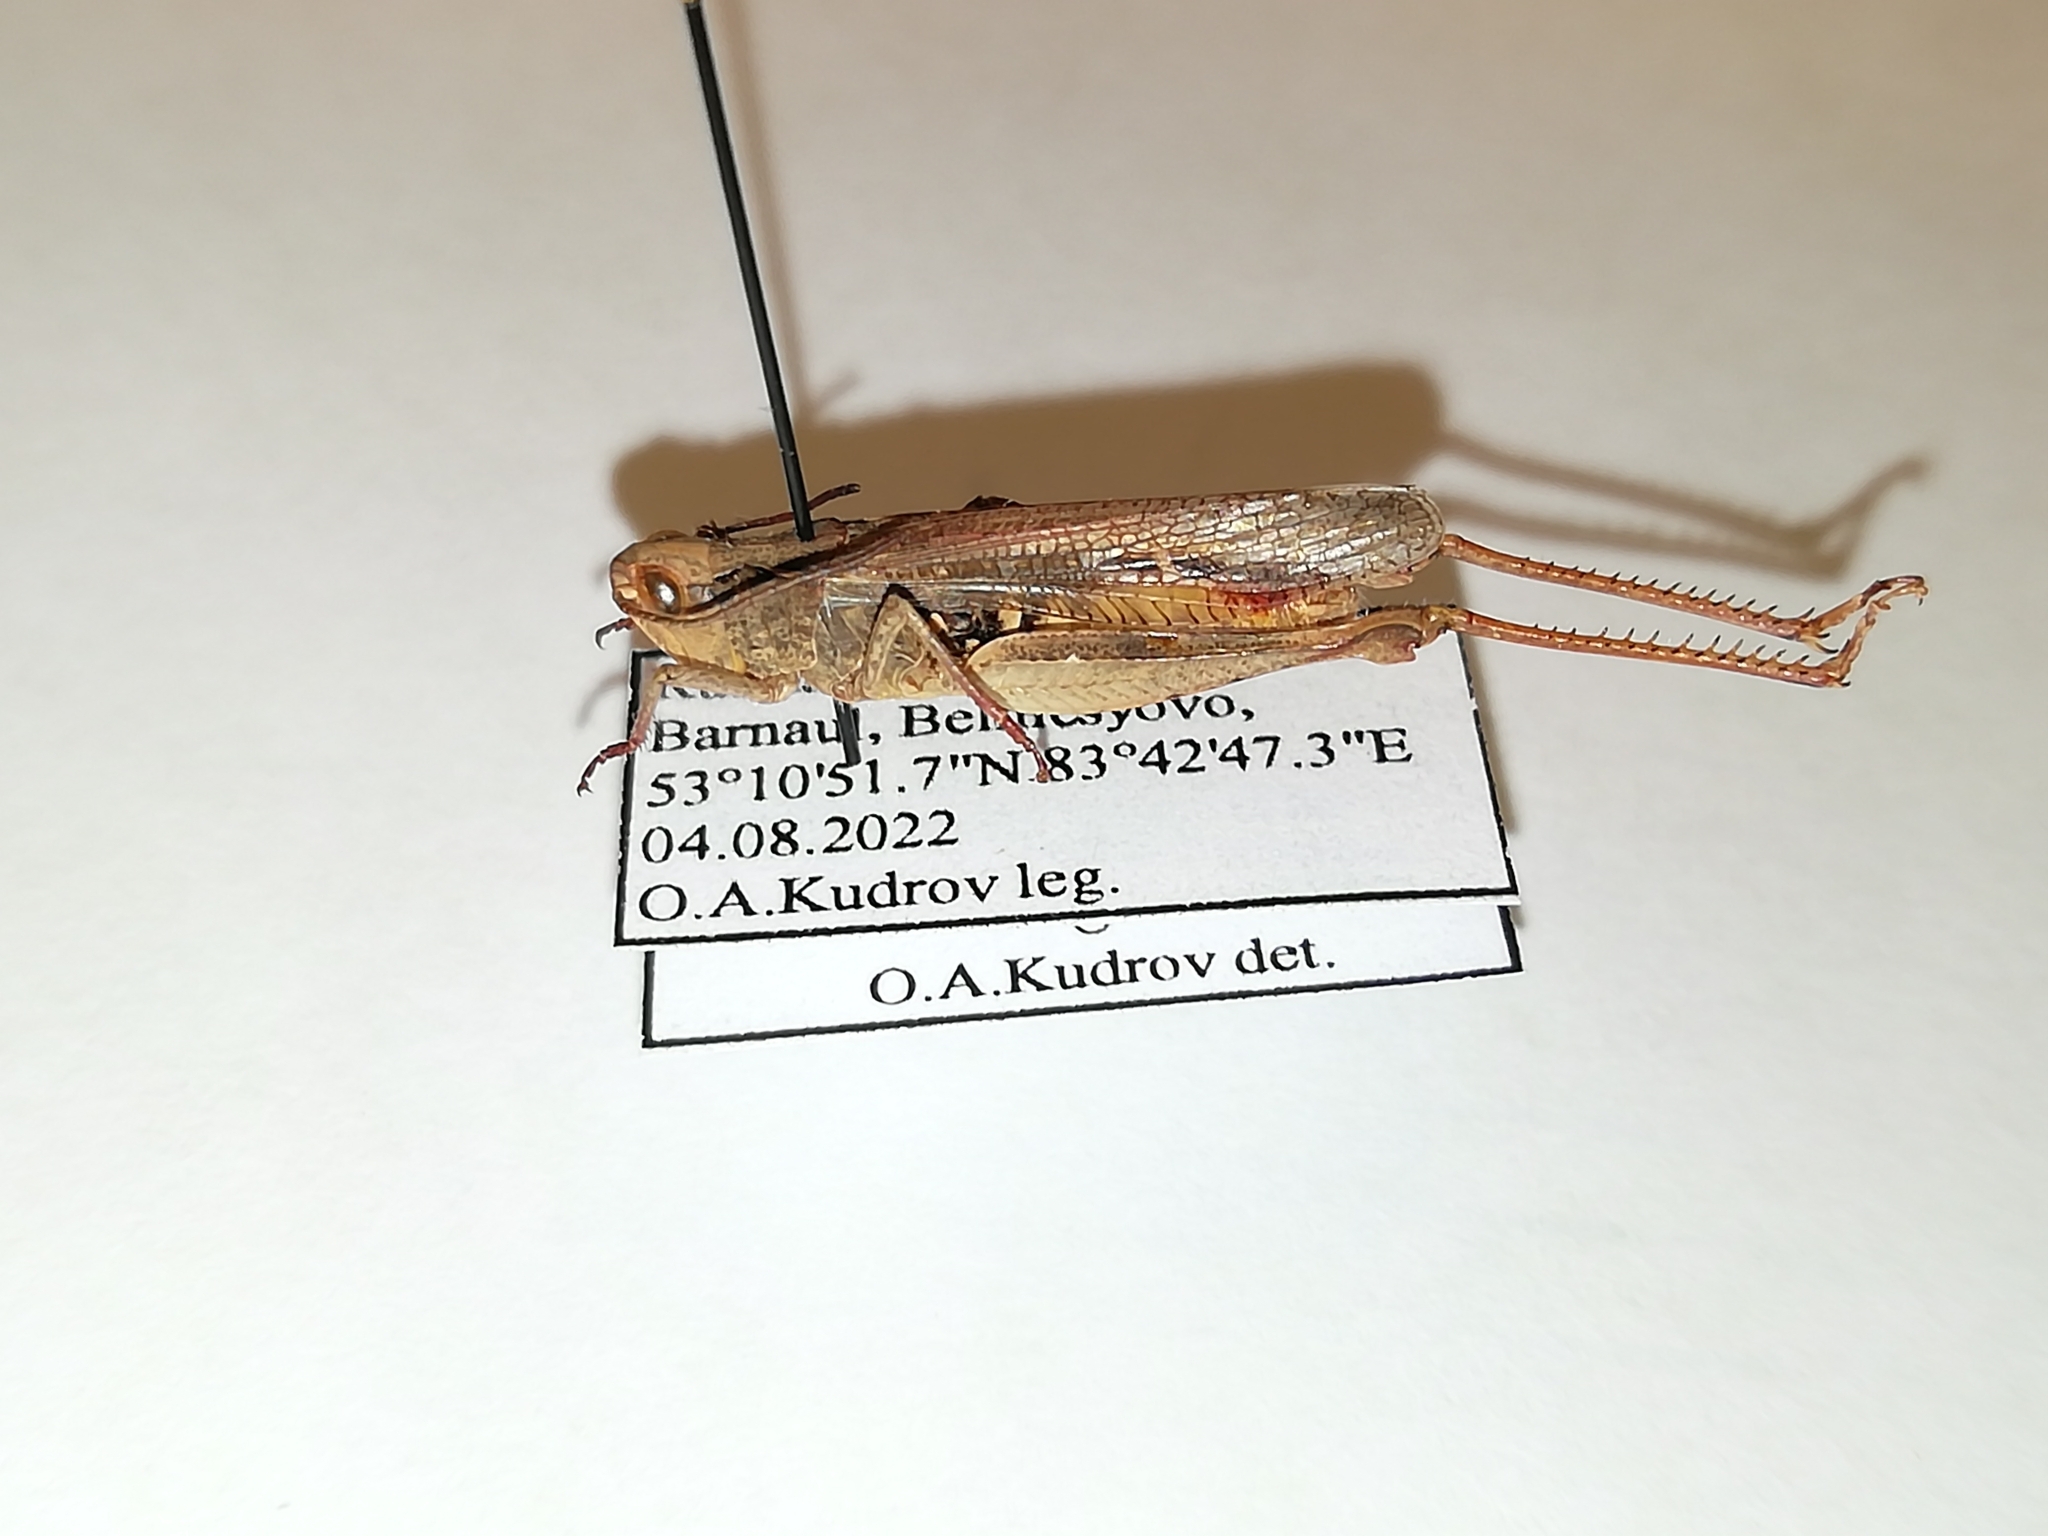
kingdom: Animalia
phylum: Arthropoda
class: Insecta
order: Orthoptera
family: Acrididae
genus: Chorthippus
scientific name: Chorthippus miramae
